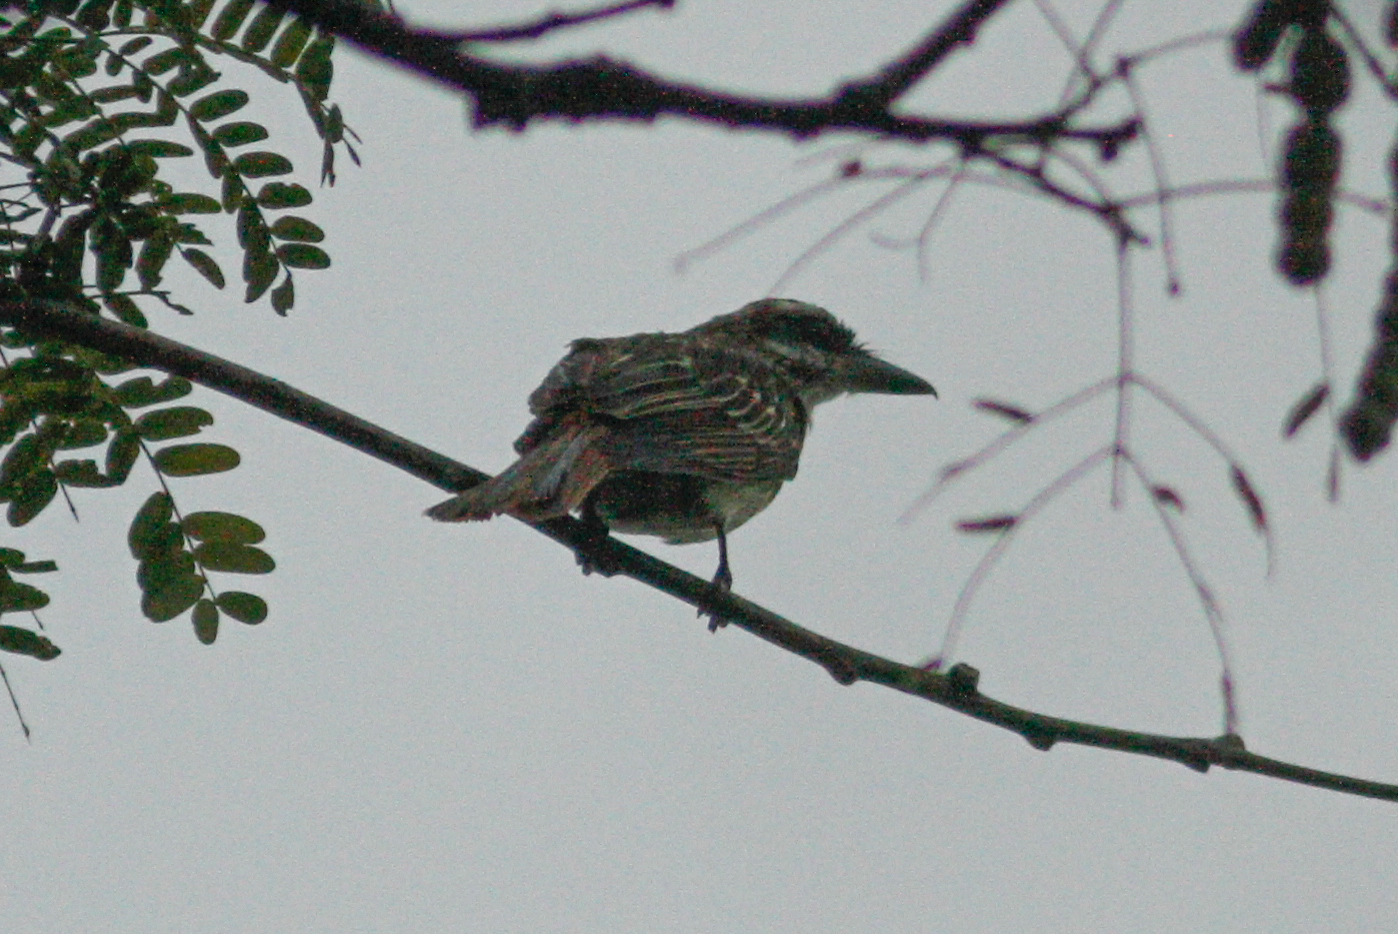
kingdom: Animalia
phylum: Chordata
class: Aves
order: Passeriformes
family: Tyrannidae
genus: Myiodynastes
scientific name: Myiodynastes maculatus
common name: Streaked flycatcher
